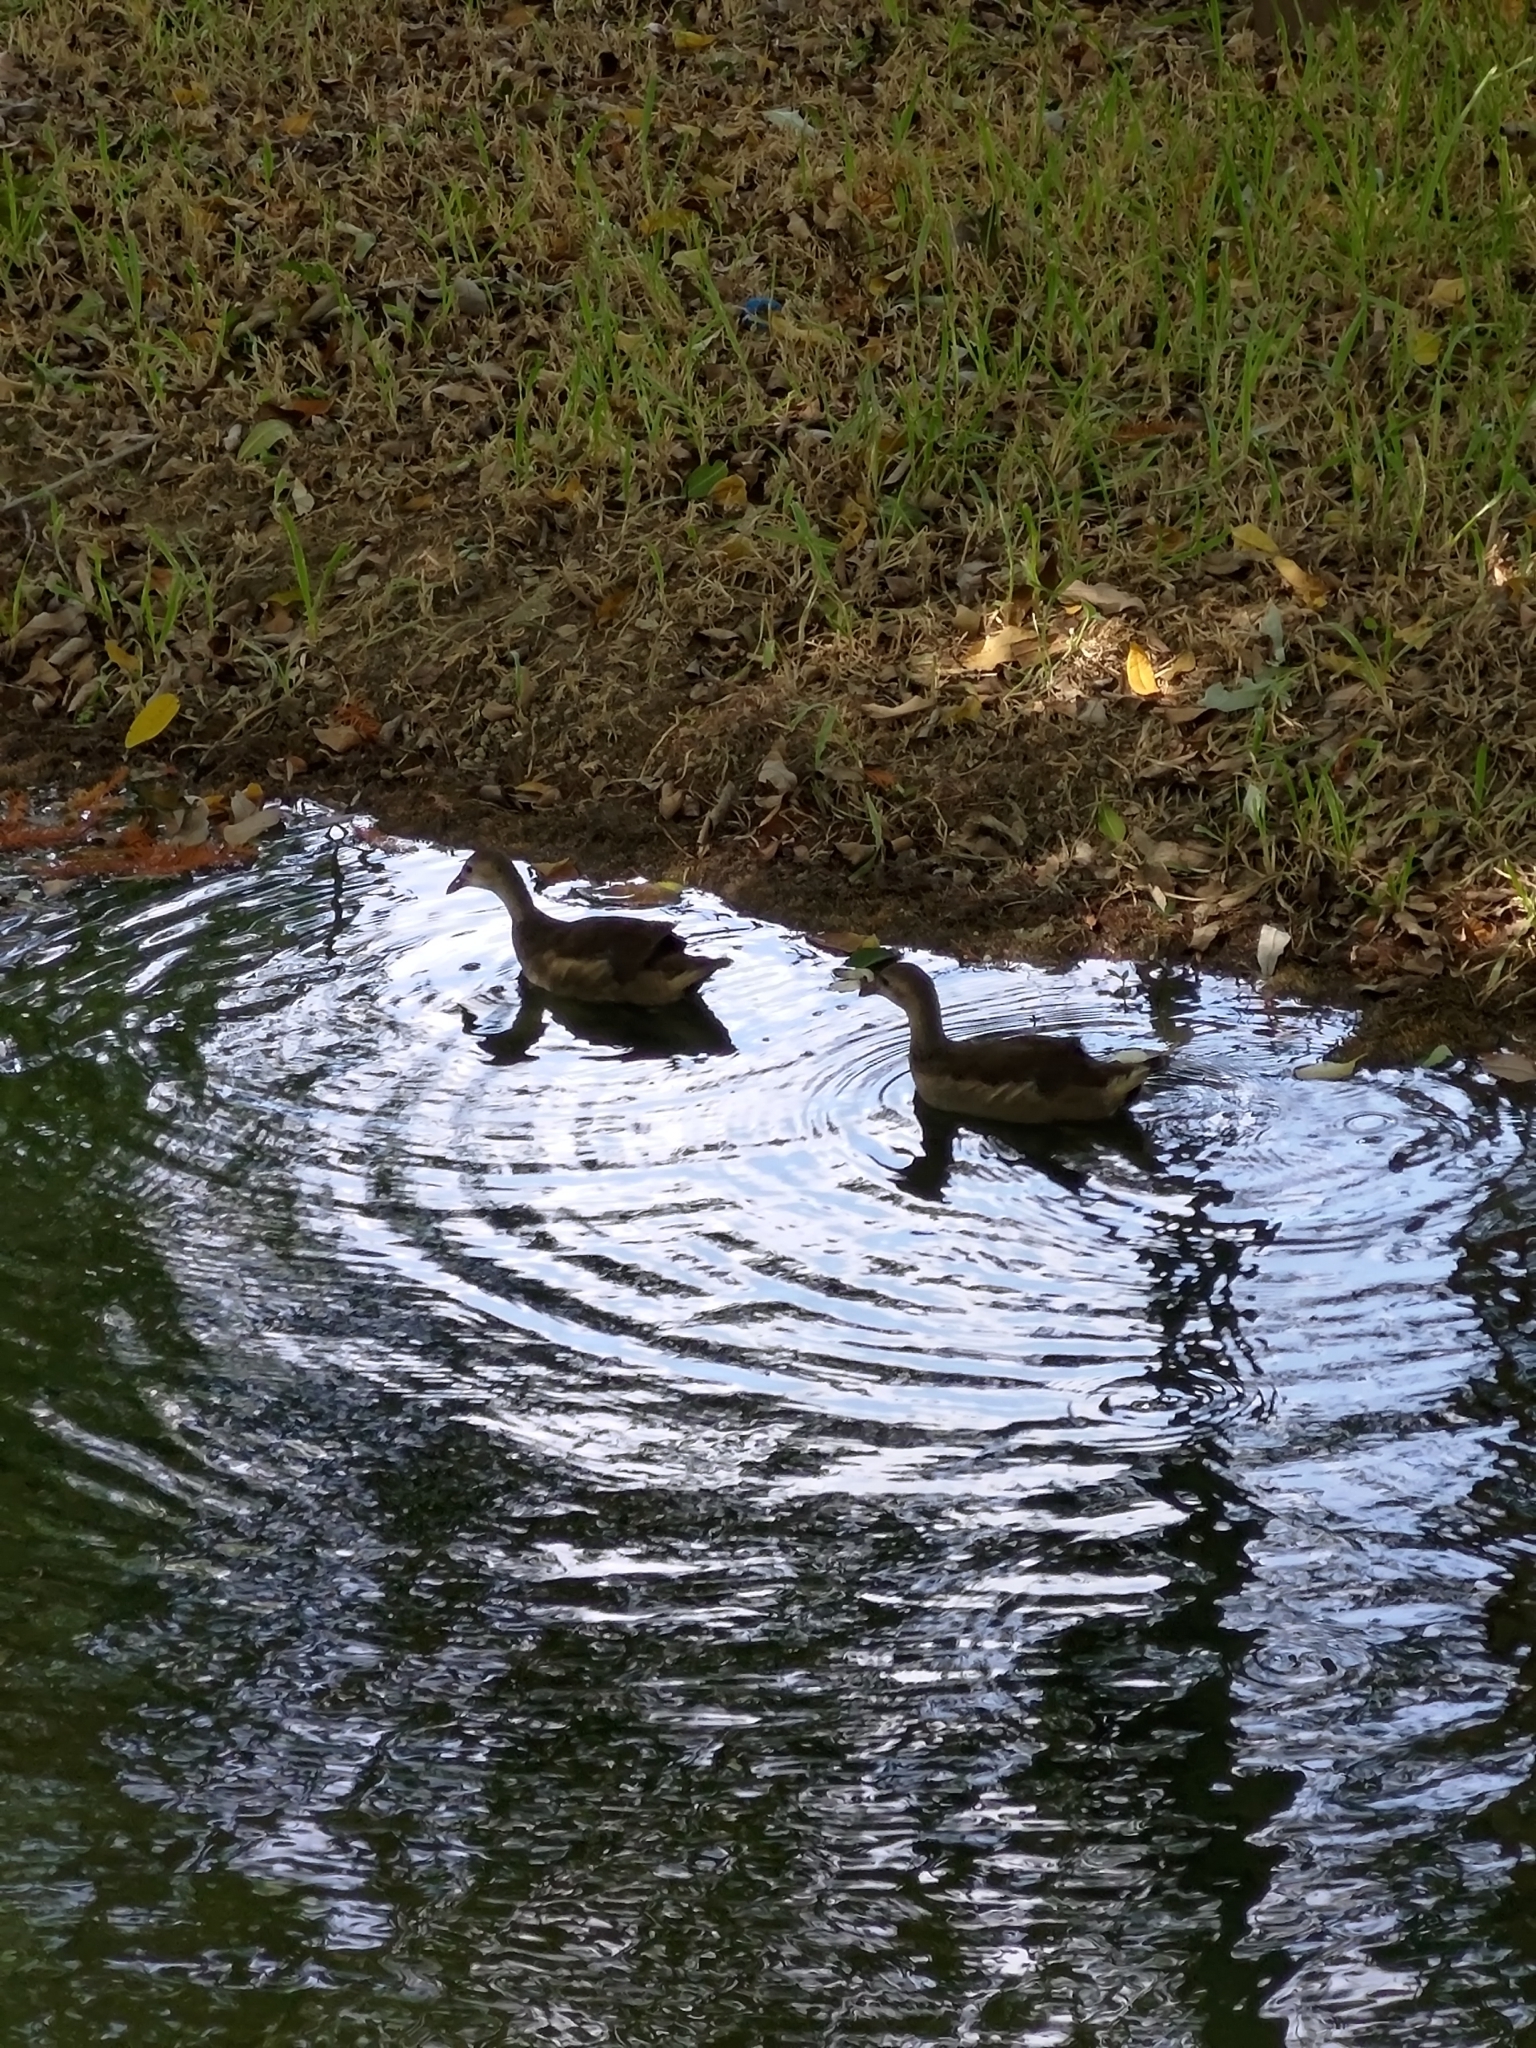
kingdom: Animalia
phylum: Chordata
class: Aves
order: Gruiformes
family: Rallidae
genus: Gallinula
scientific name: Gallinula chloropus
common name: Common moorhen
